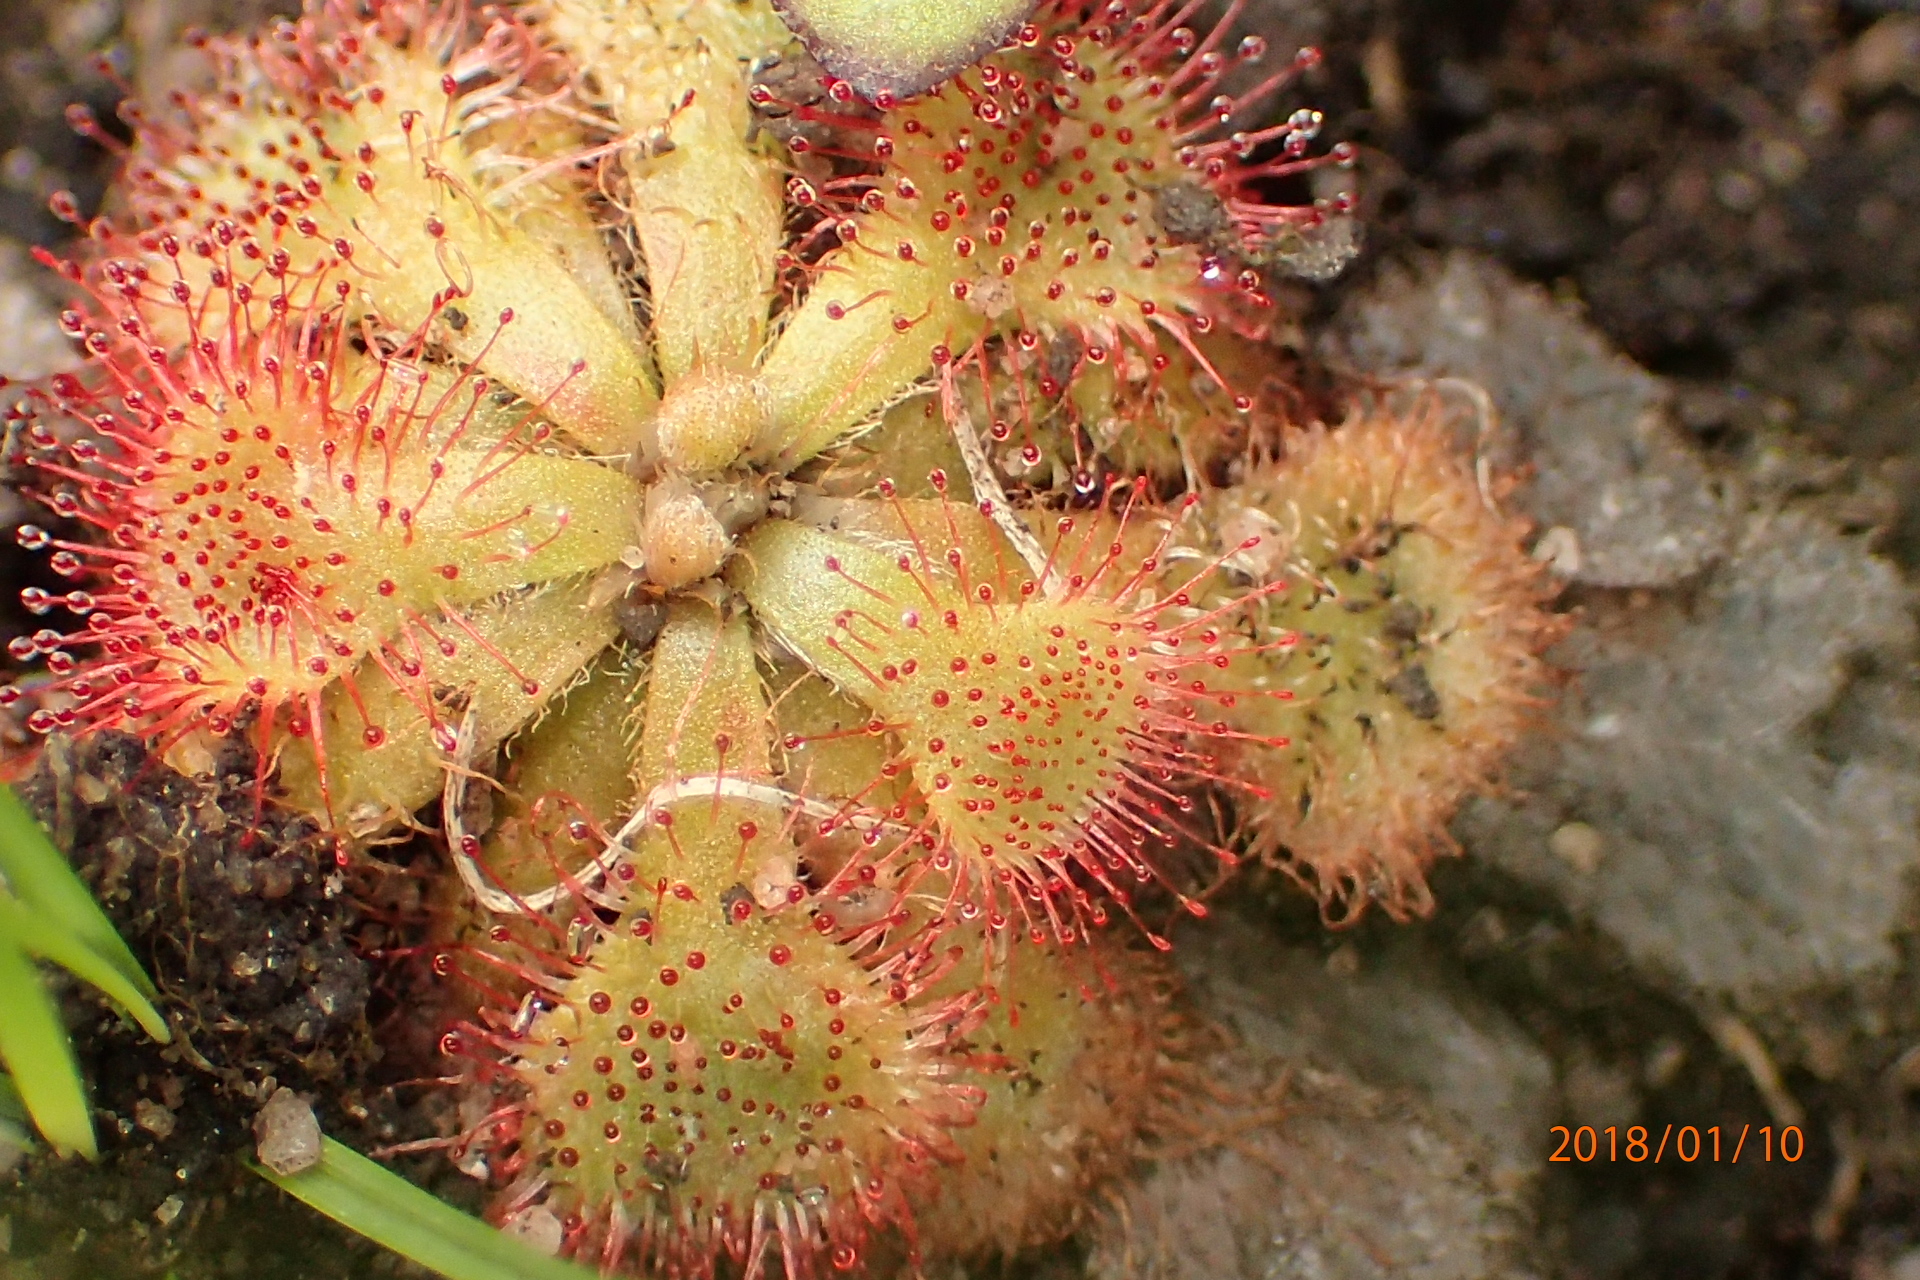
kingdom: Plantae
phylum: Tracheophyta
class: Magnoliopsida
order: Caryophyllales
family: Droseraceae
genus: Drosera
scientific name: Drosera natalensis
